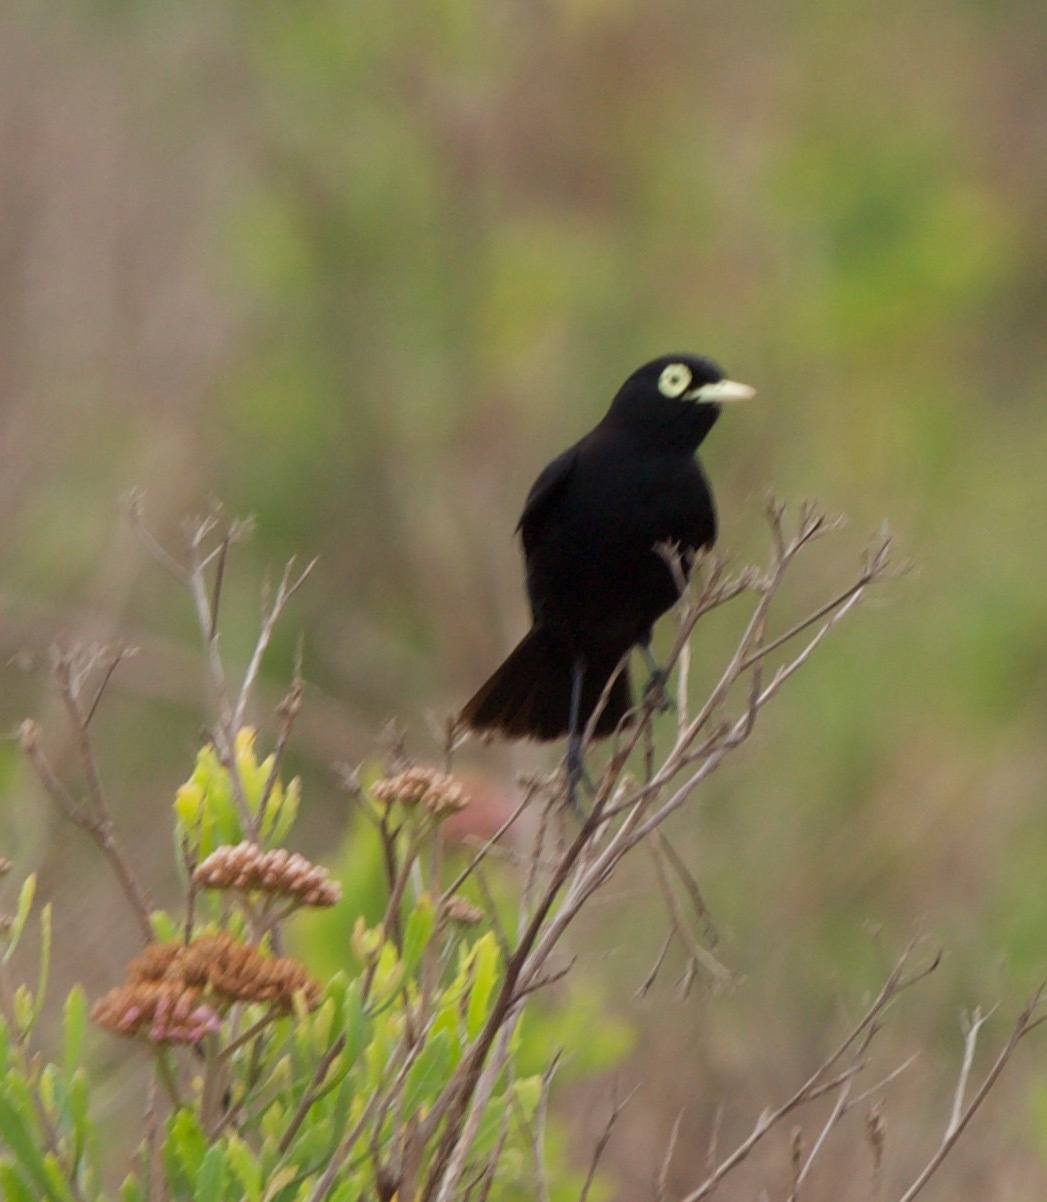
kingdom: Animalia
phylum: Chordata
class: Aves
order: Passeriformes
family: Tyrannidae
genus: Hymenops
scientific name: Hymenops perspicillatus
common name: Spectacled tyrant
